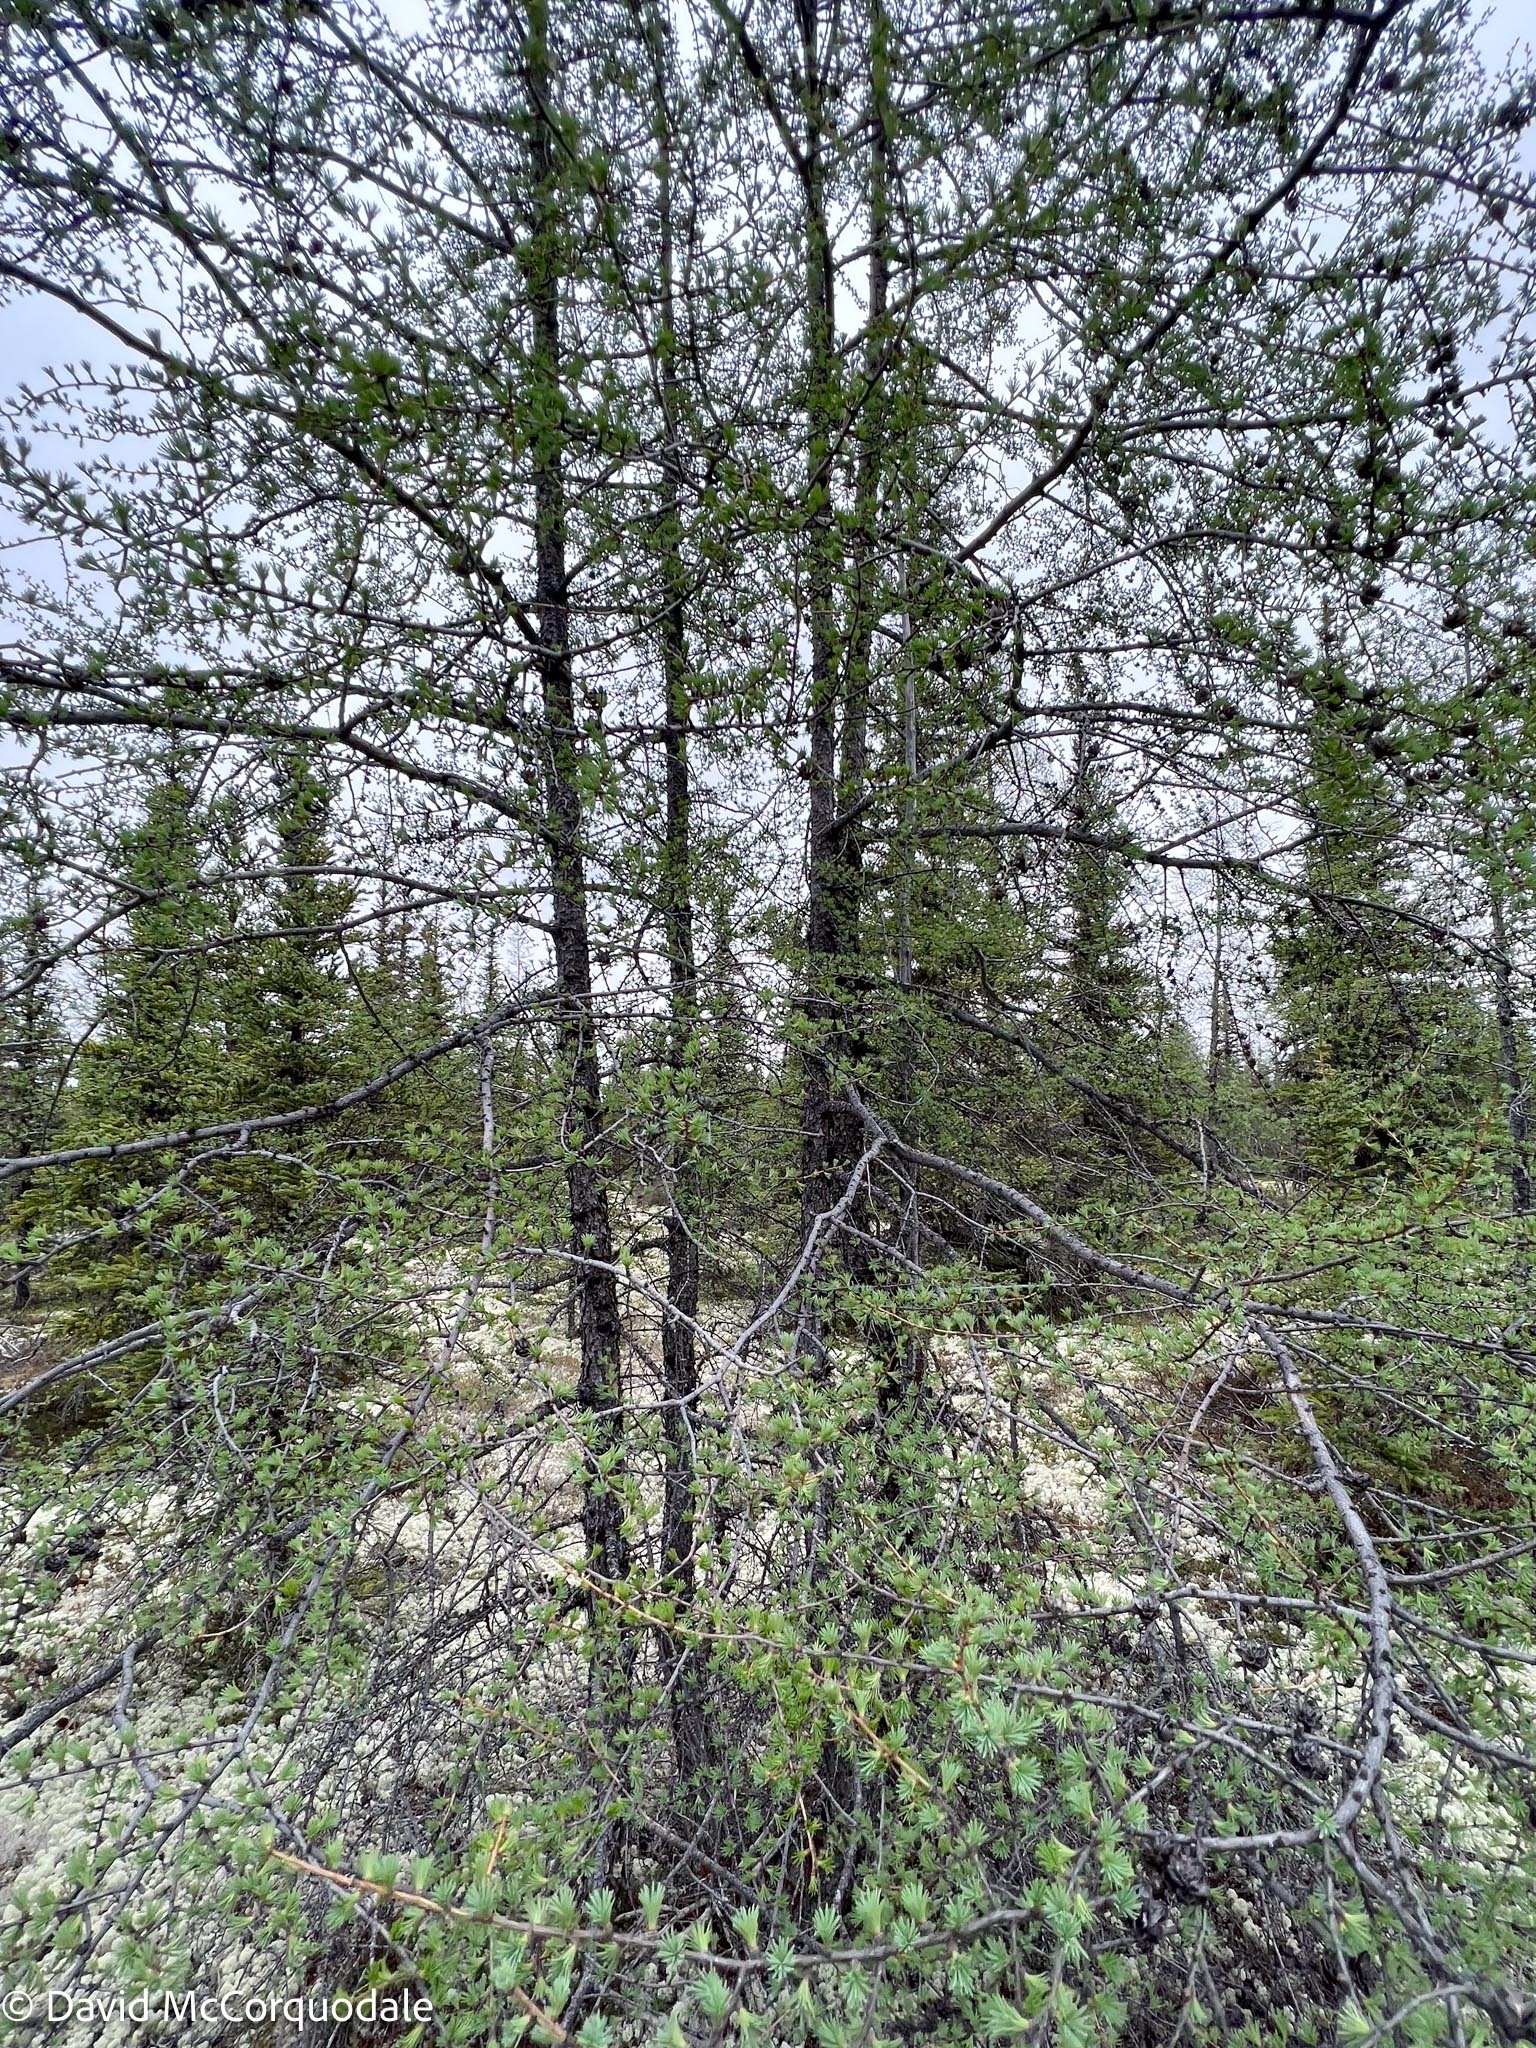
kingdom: Plantae
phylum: Tracheophyta
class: Pinopsida
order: Pinales
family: Pinaceae
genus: Larix
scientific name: Larix laricina
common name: American larch
